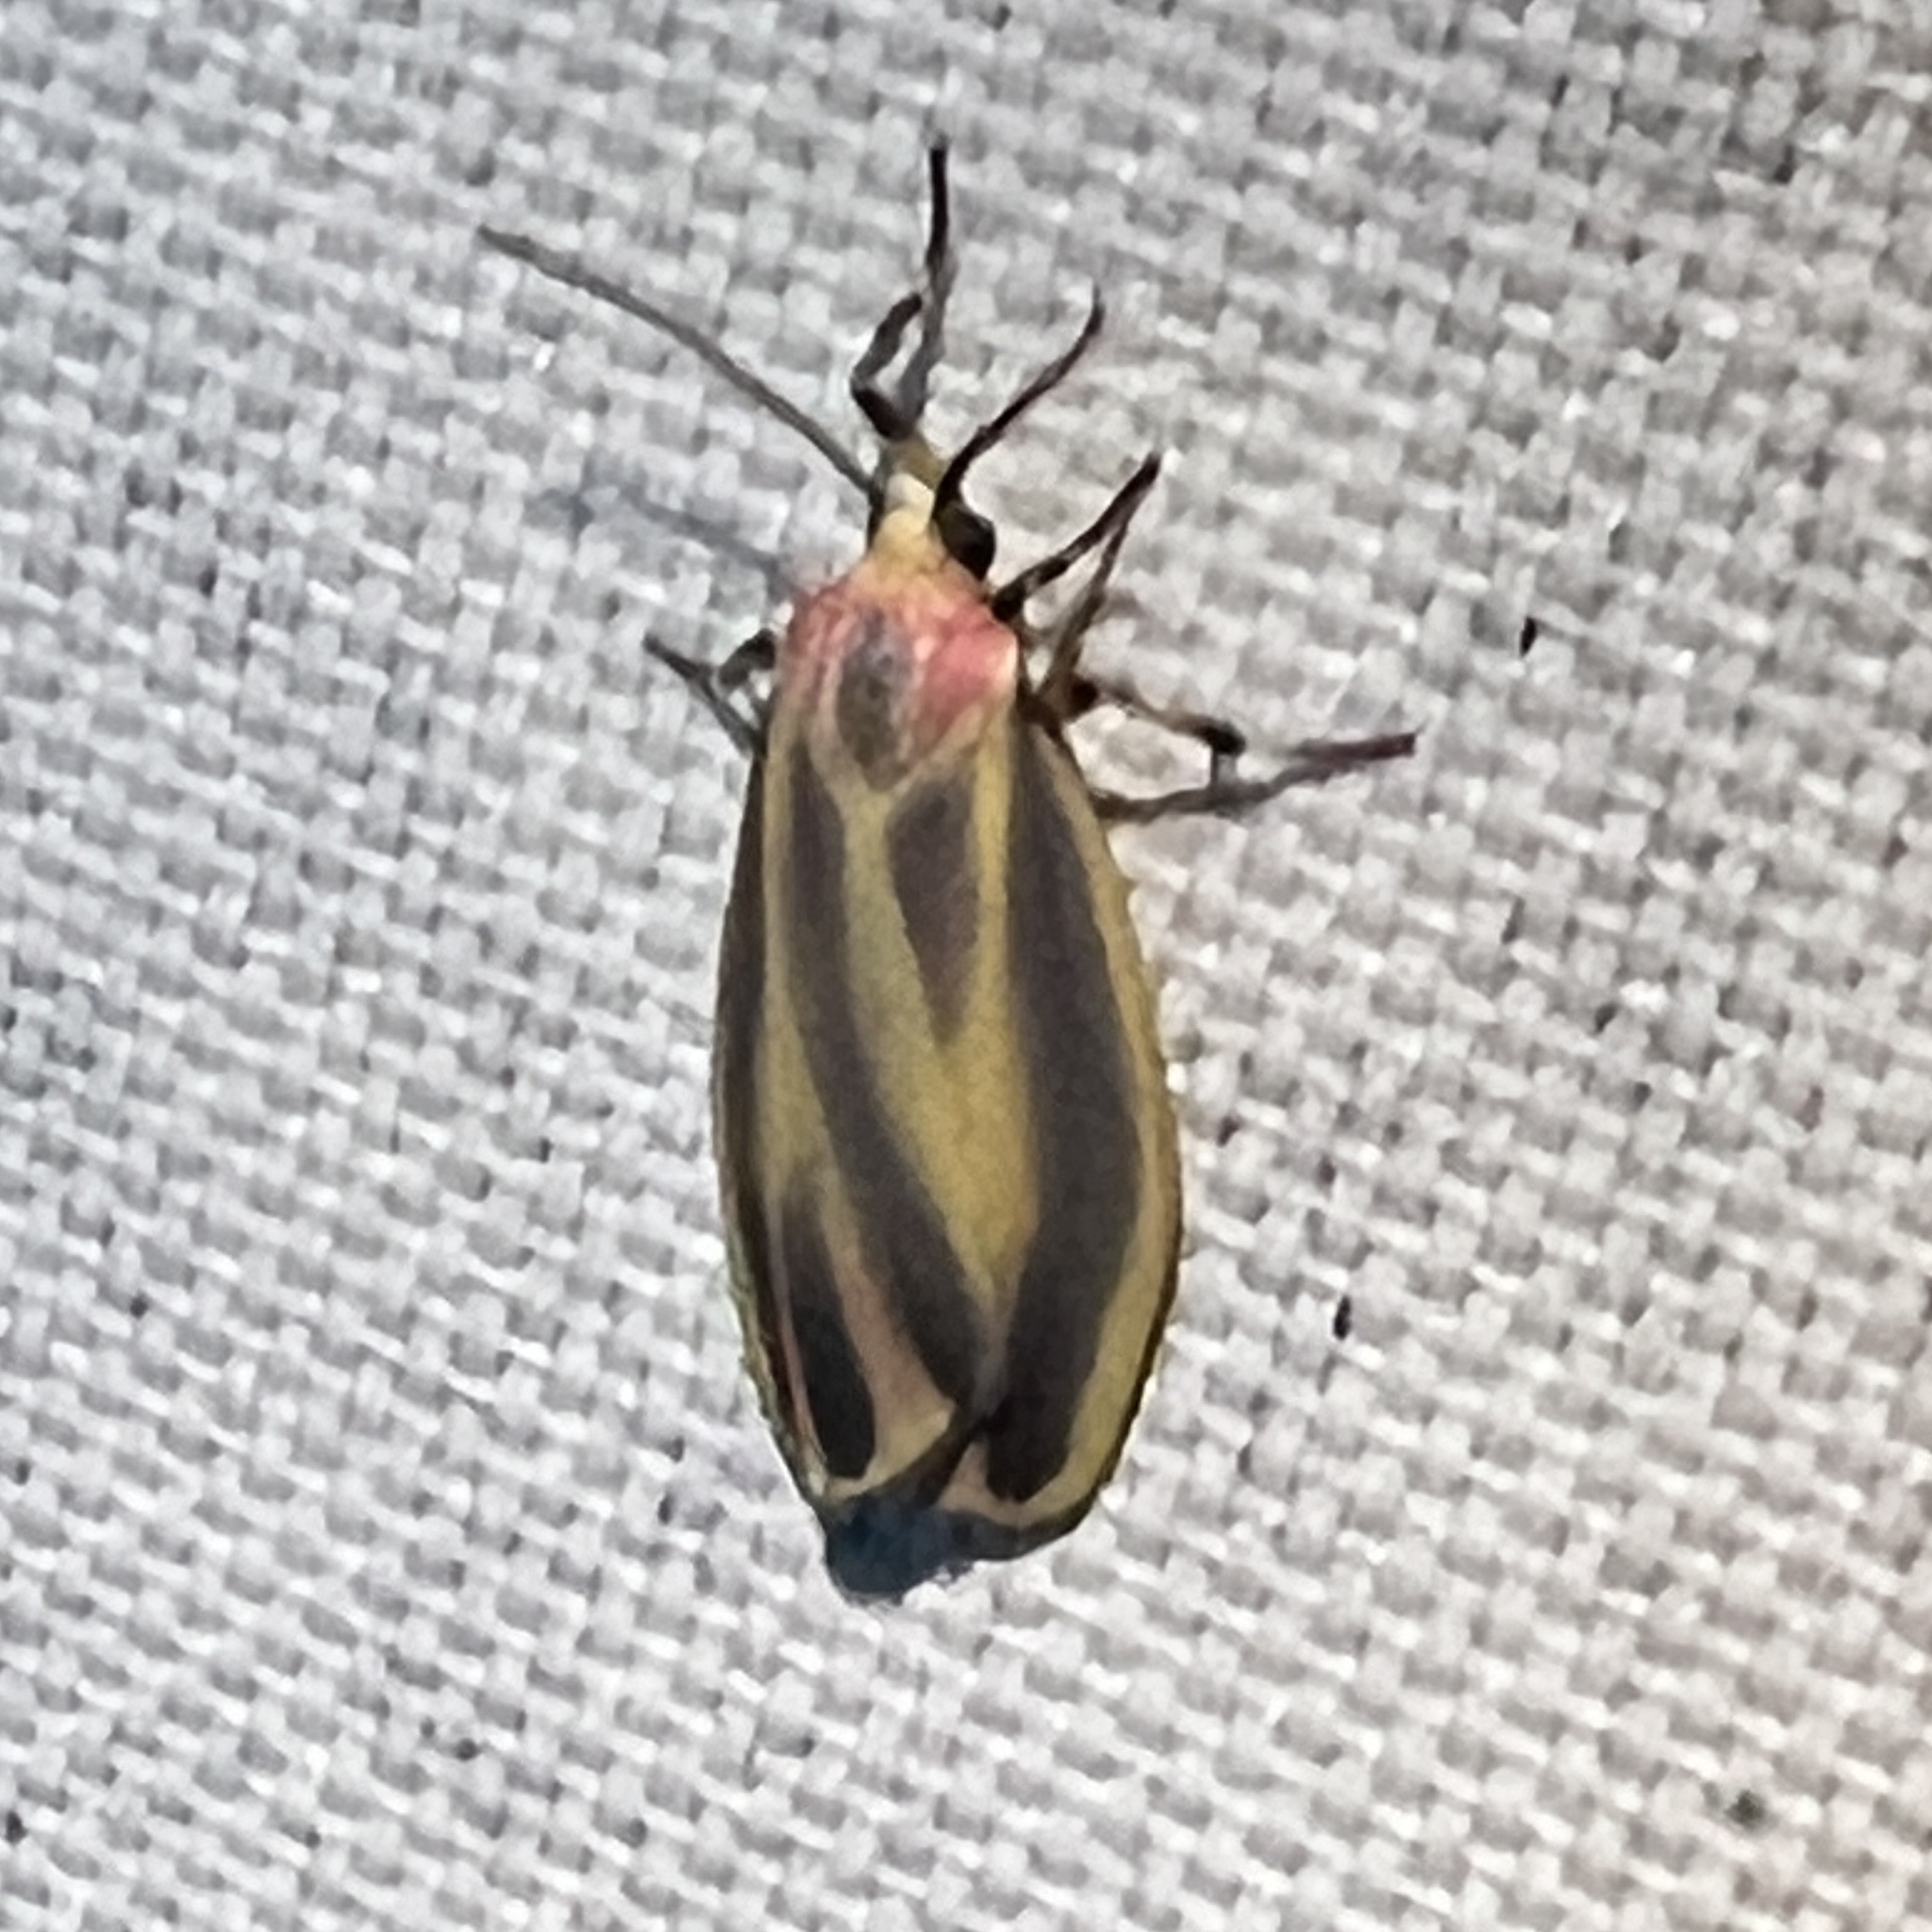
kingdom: Animalia
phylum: Arthropoda
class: Insecta
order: Lepidoptera
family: Erebidae
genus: Hypoprepia
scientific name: Hypoprepia fucosa
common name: Painted lichen moth
